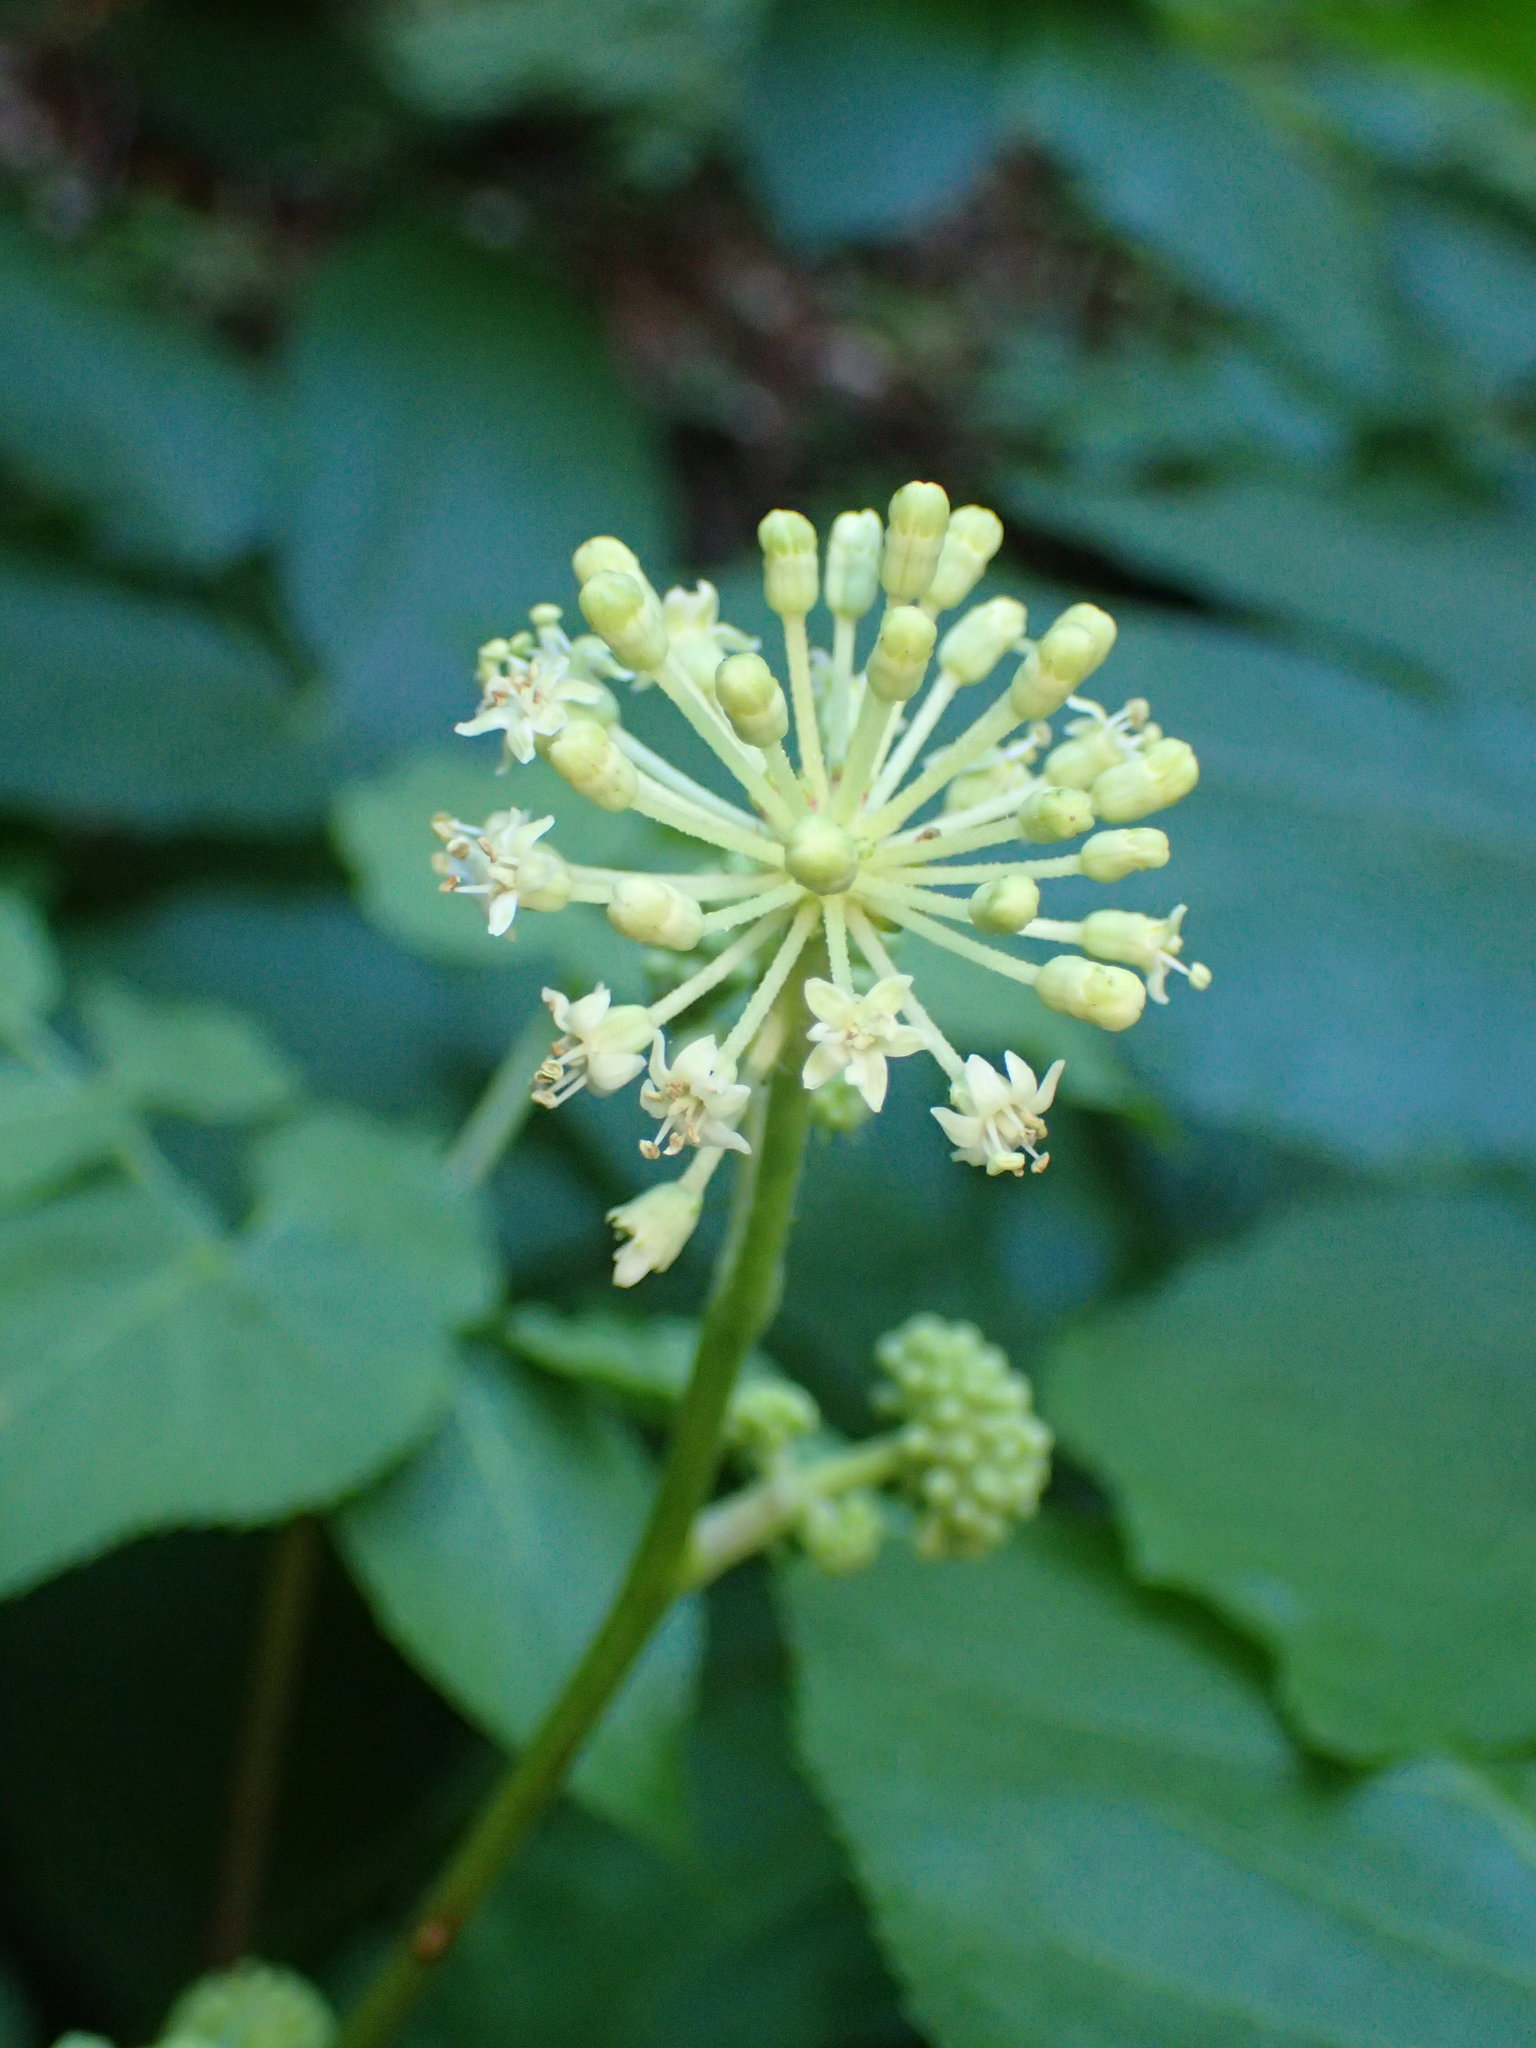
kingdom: Plantae
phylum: Tracheophyta
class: Magnoliopsida
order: Apiales
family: Araliaceae
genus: Aralia
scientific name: Aralia californica
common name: California-ginseng
